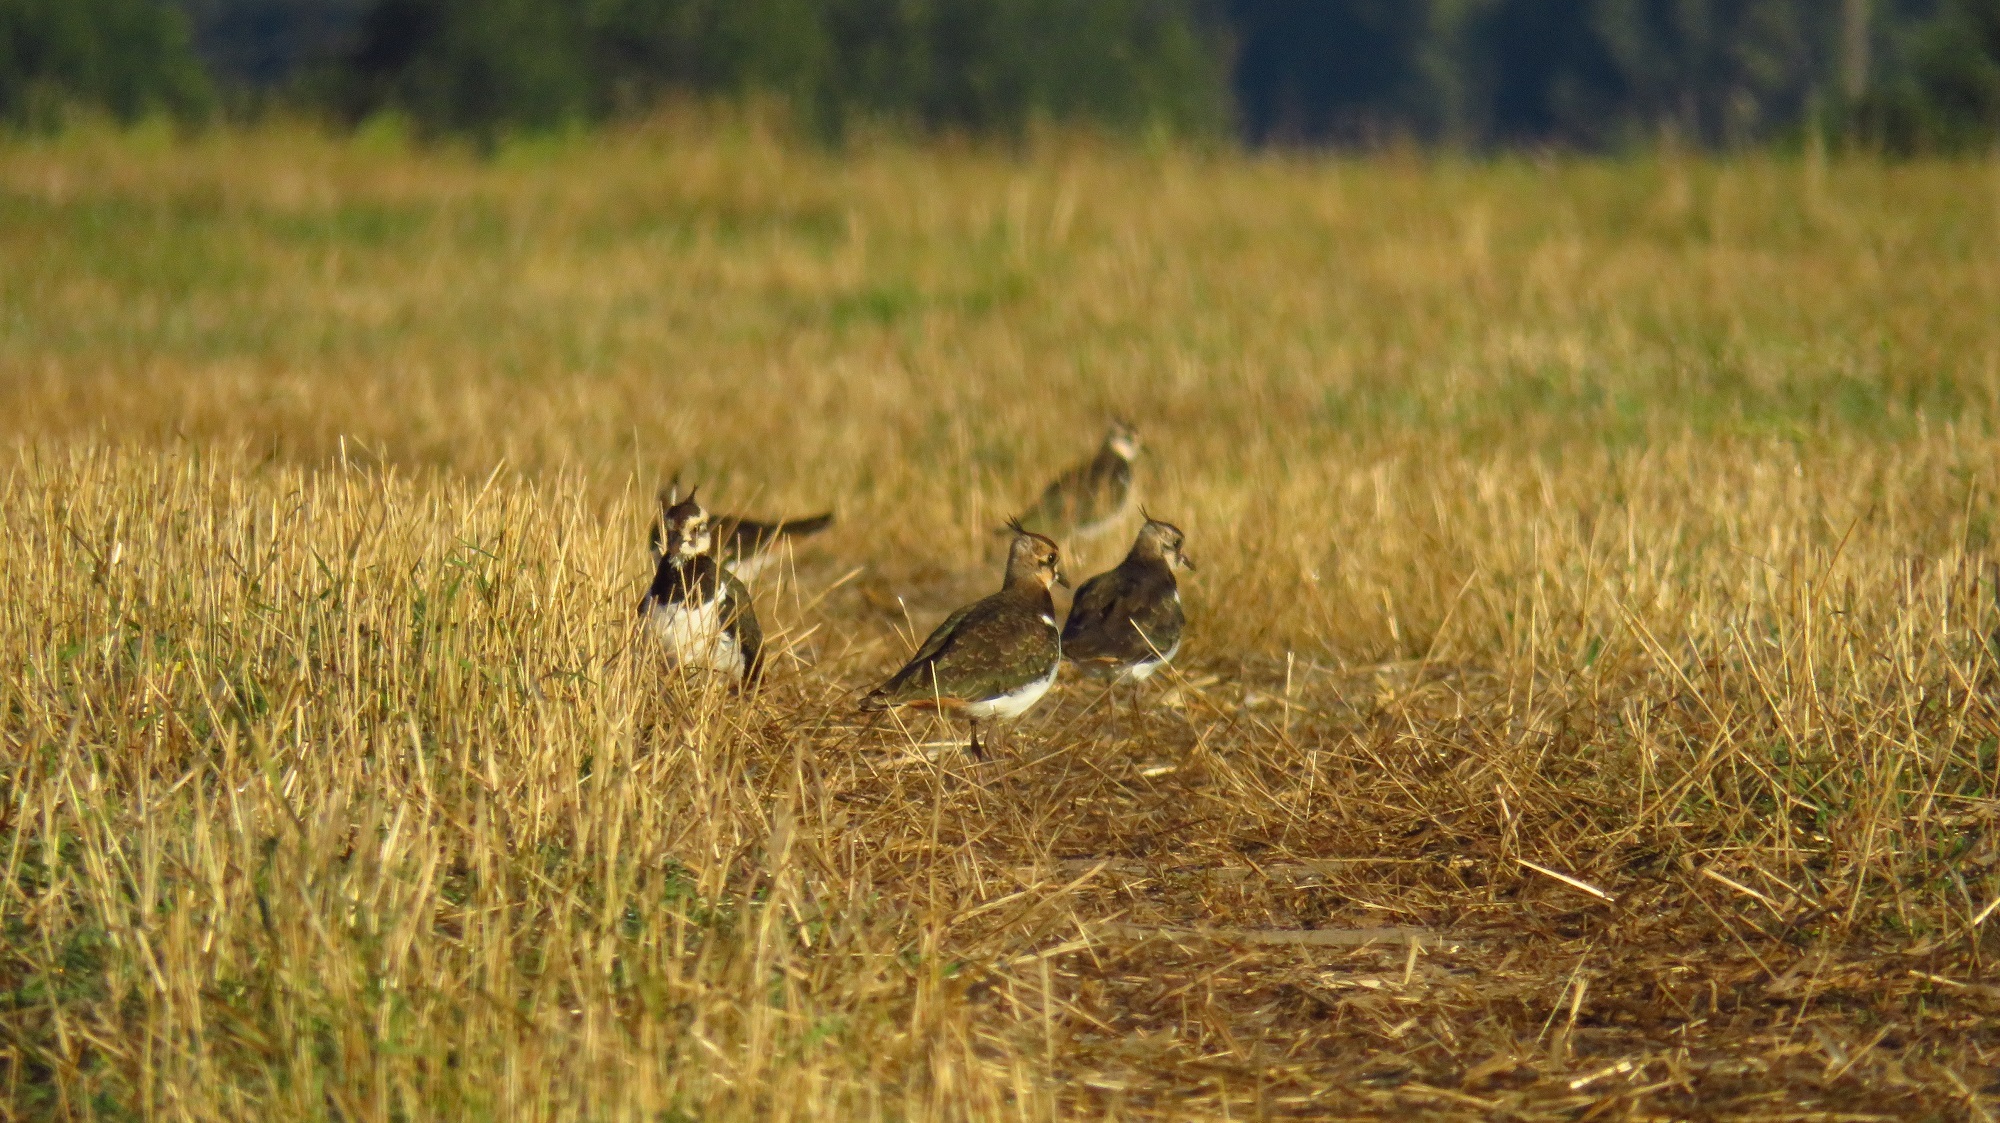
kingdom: Animalia
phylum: Chordata
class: Aves
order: Charadriiformes
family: Charadriidae
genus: Vanellus
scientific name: Vanellus vanellus
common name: Northern lapwing
